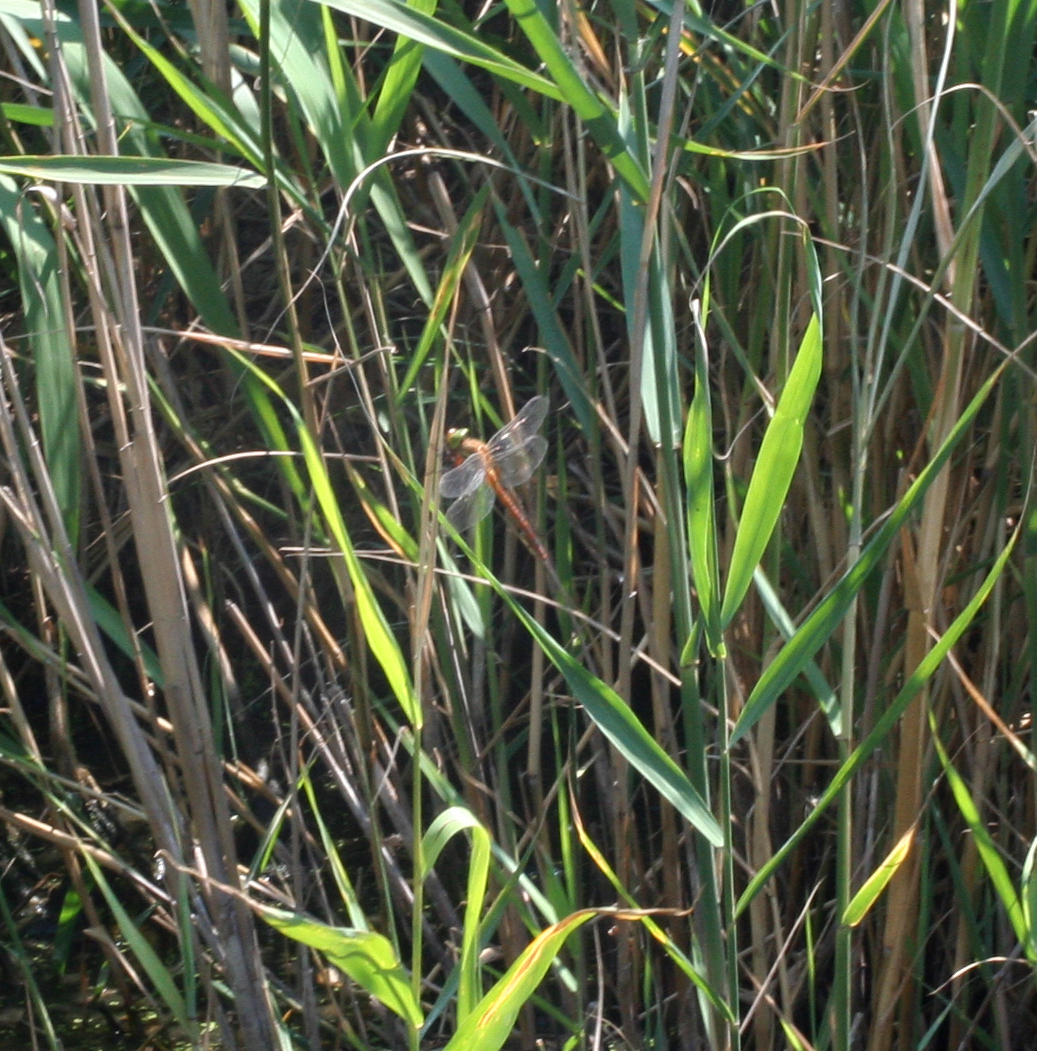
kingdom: Animalia
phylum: Arthropoda
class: Insecta
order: Odonata
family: Aeshnidae
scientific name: Aeshnidae
